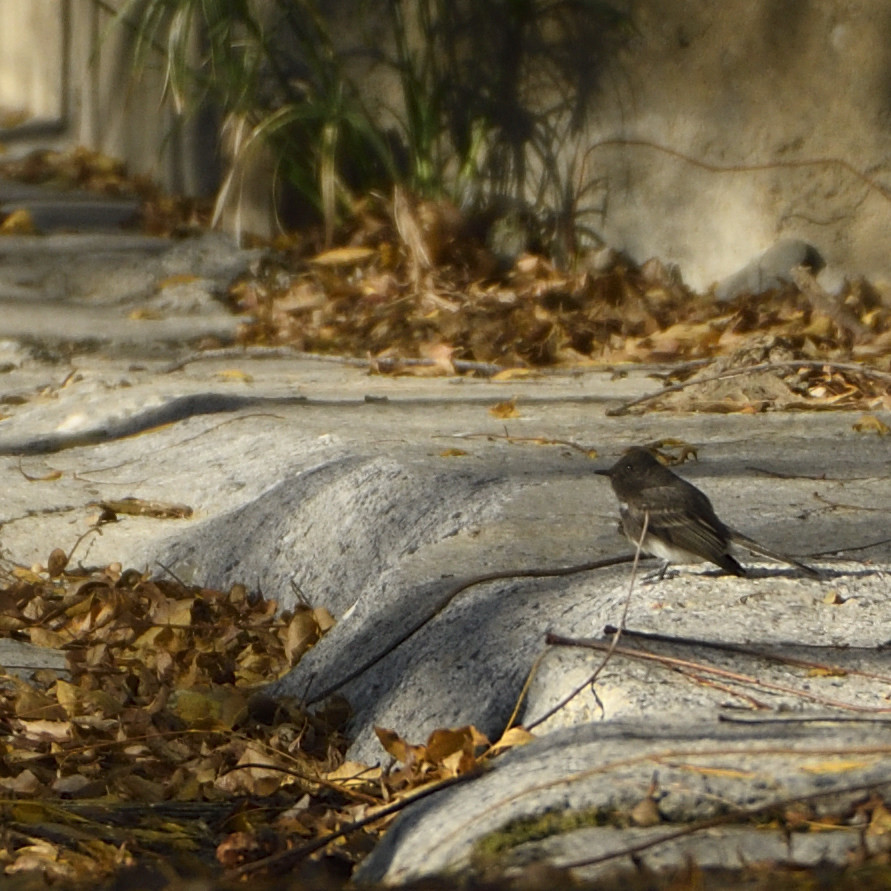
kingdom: Animalia
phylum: Chordata
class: Aves
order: Passeriformes
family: Tyrannidae
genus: Sayornis
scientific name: Sayornis nigricans
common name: Black phoebe
